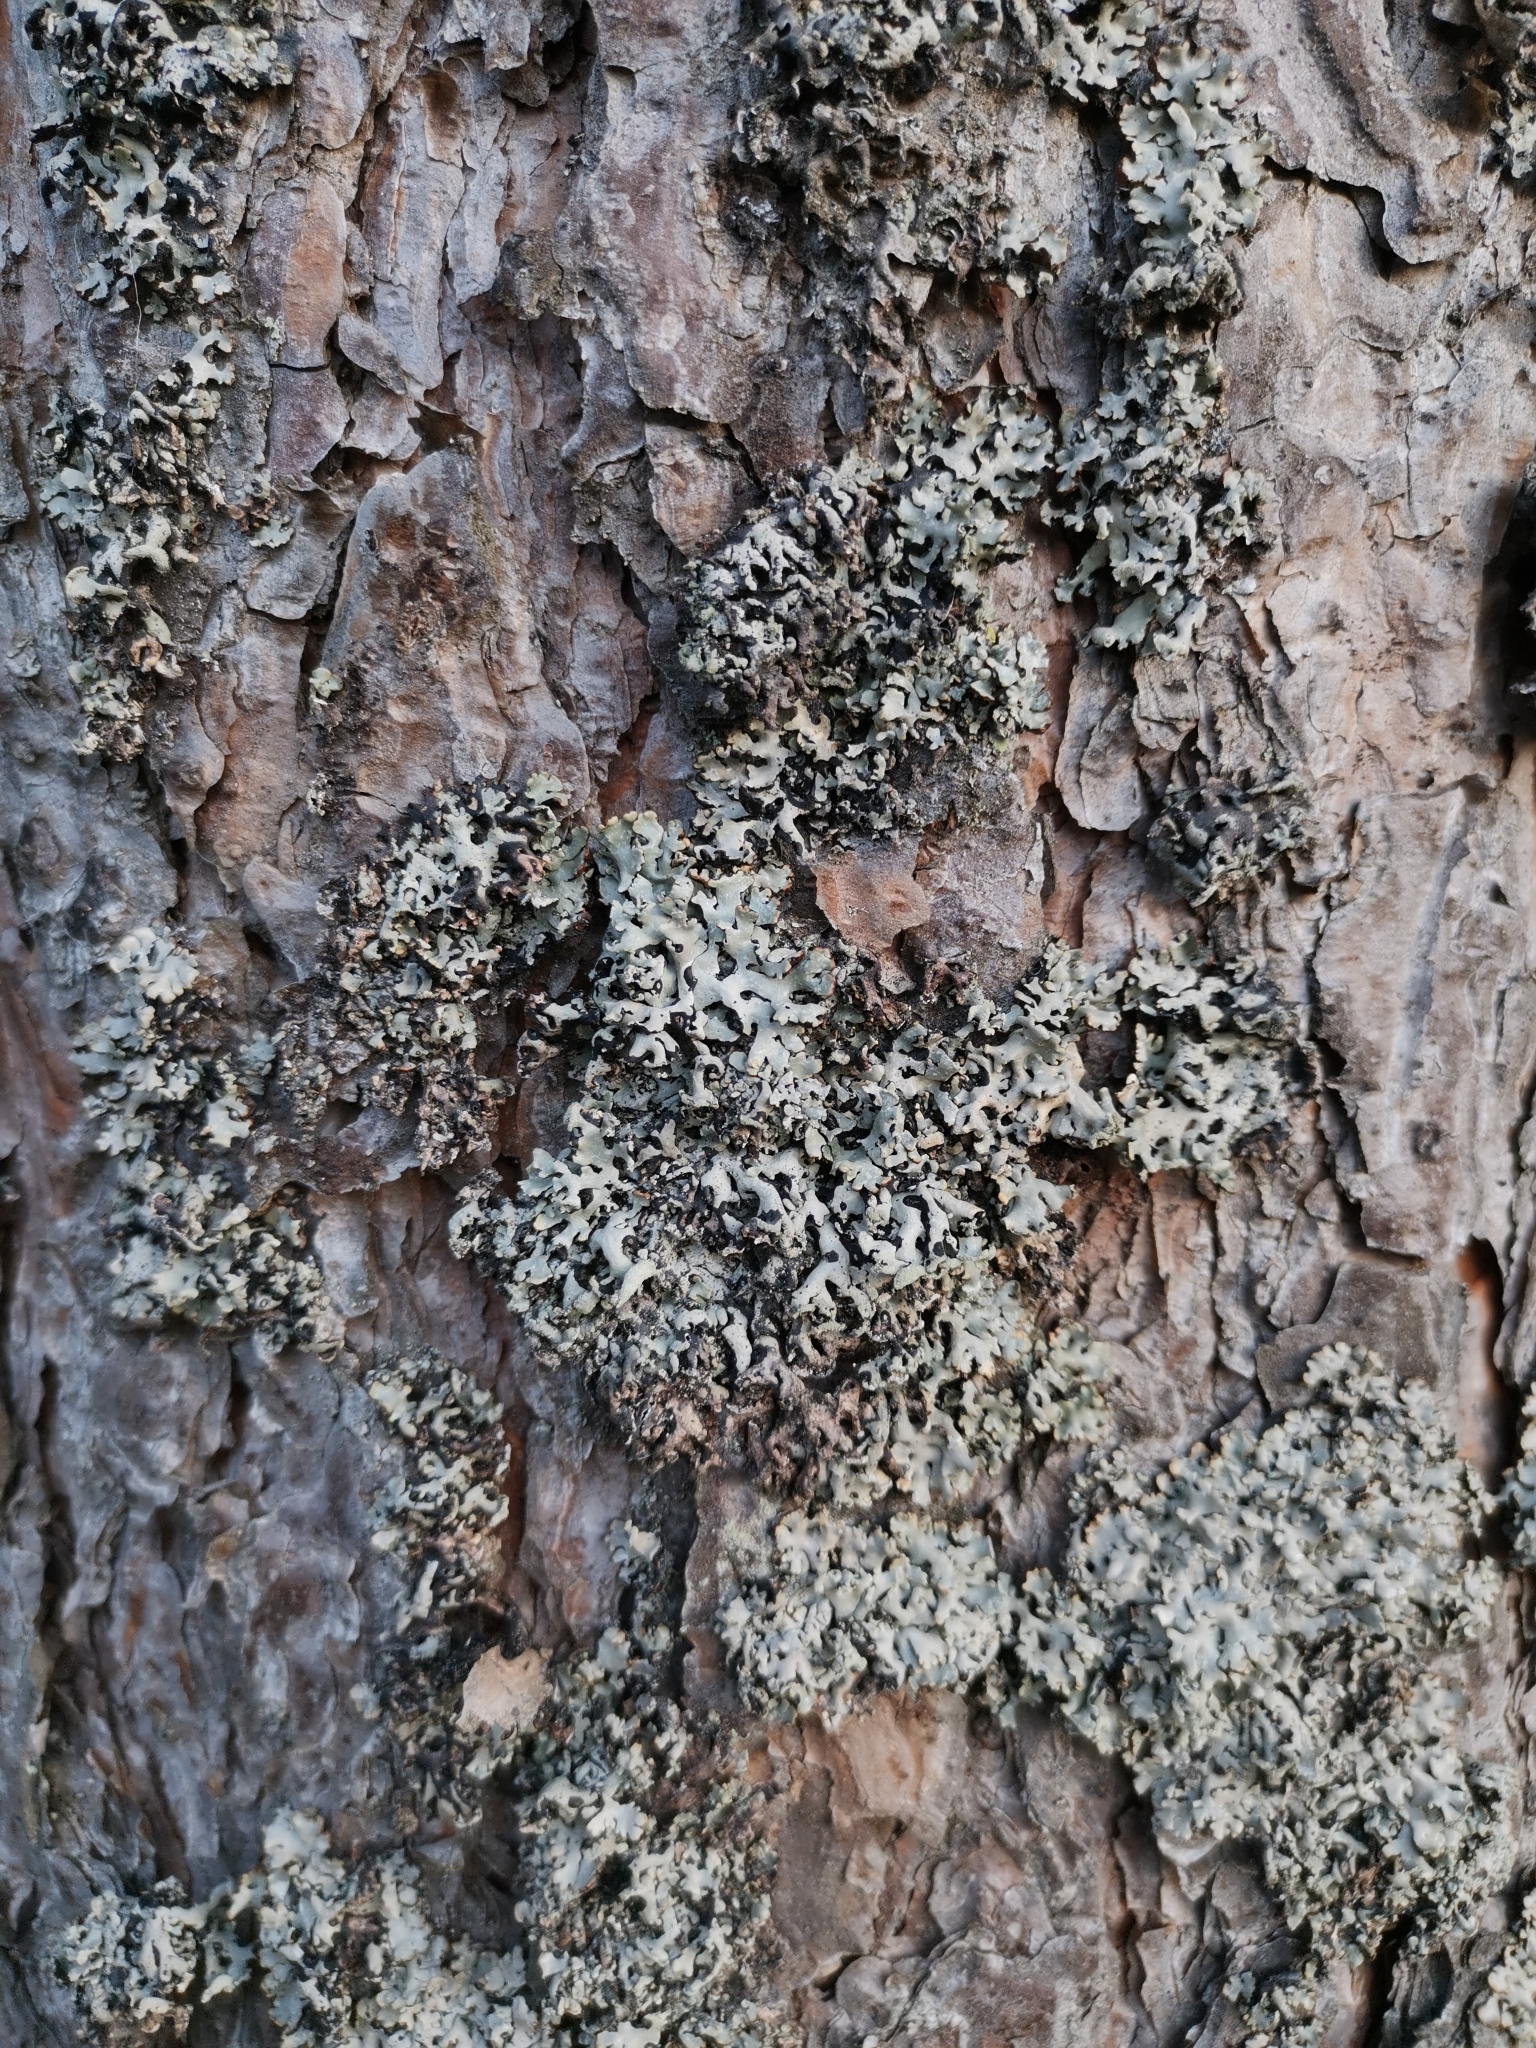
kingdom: Fungi
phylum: Ascomycota
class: Lecanoromycetes
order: Lecanorales
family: Parmeliaceae
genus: Hypogymnia
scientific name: Hypogymnia physodes
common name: Dark crottle
